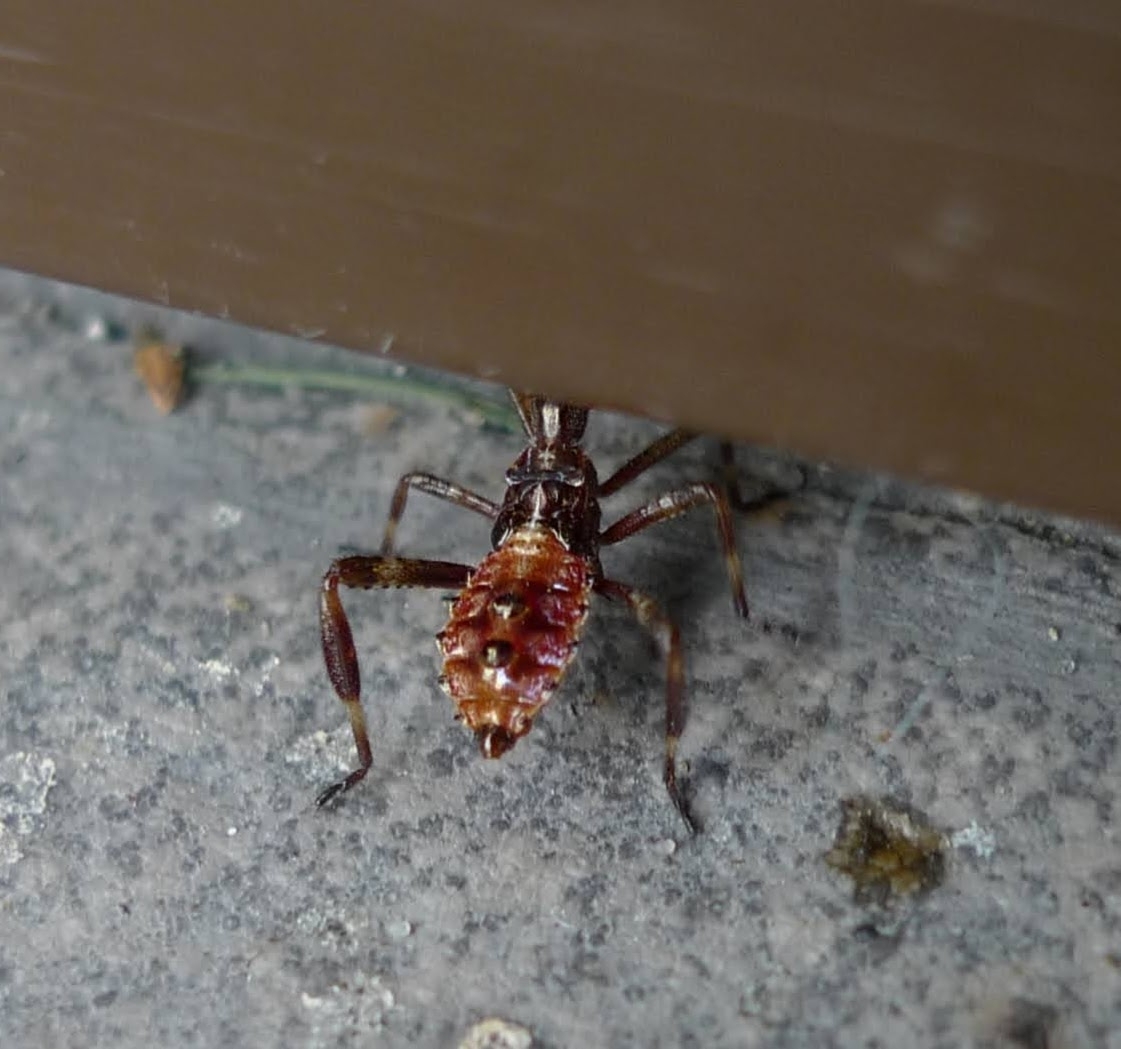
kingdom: Animalia
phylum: Arthropoda
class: Insecta
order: Hemiptera
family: Coreidae
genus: Leptoglossus
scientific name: Leptoglossus occidentalis
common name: Western conifer-seed bug
